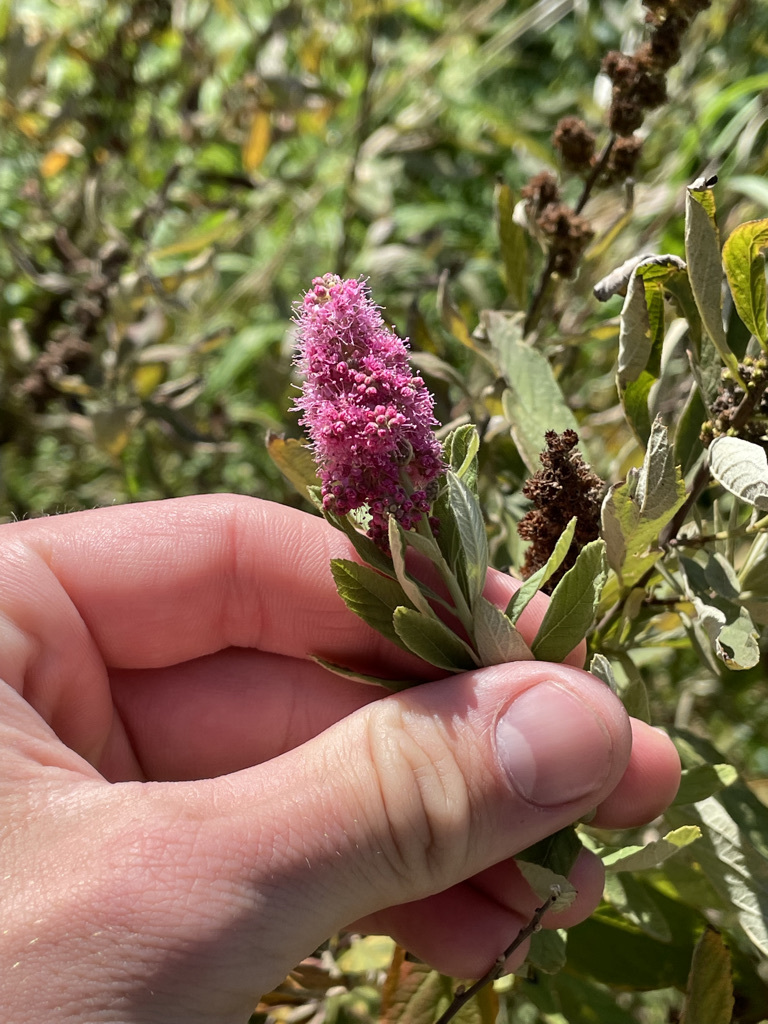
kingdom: Plantae
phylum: Tracheophyta
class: Magnoliopsida
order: Rosales
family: Rosaceae
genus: Spiraea
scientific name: Spiraea douglasii
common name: Steeplebush
